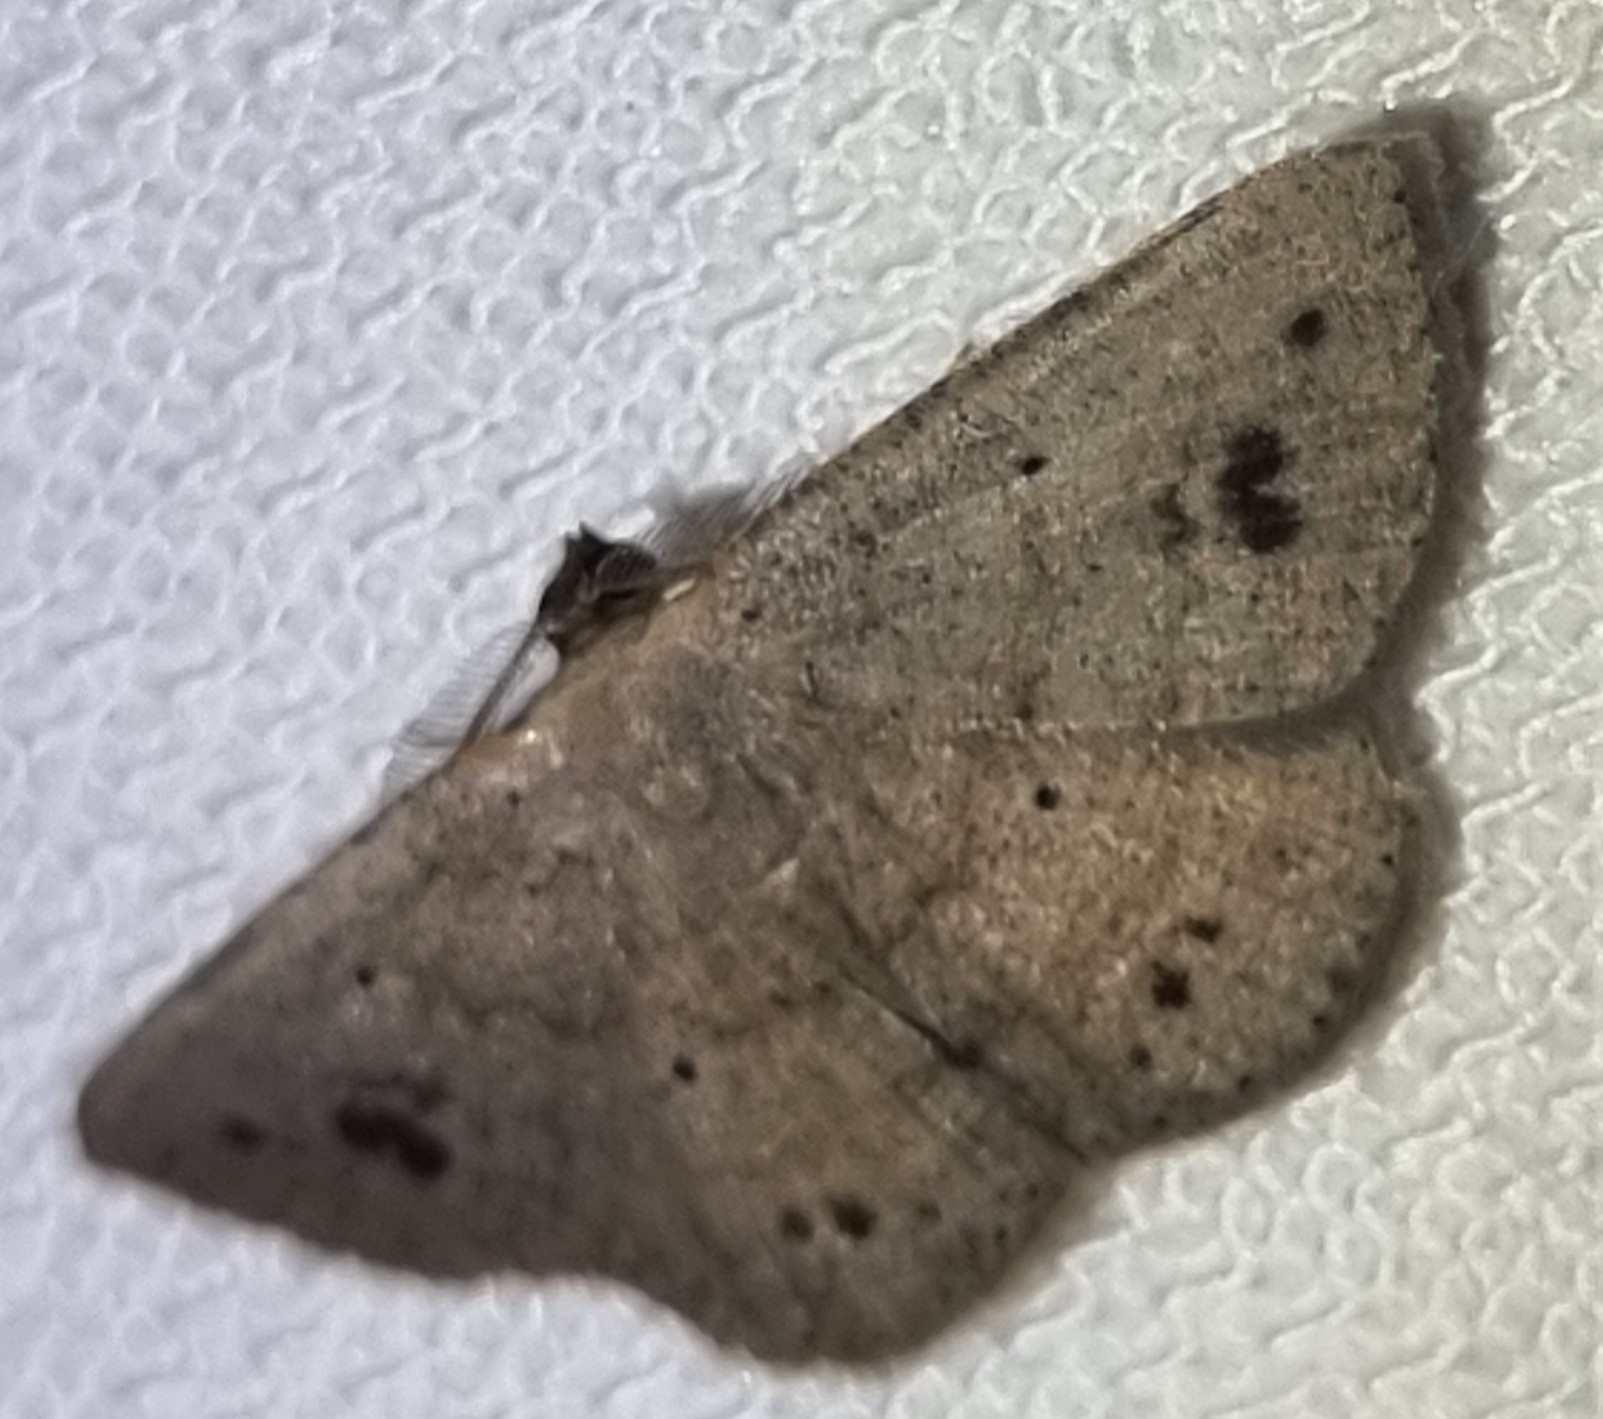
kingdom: Animalia
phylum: Arthropoda
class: Insecta
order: Lepidoptera
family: Geometridae
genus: Casbia
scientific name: Casbia rectaria
